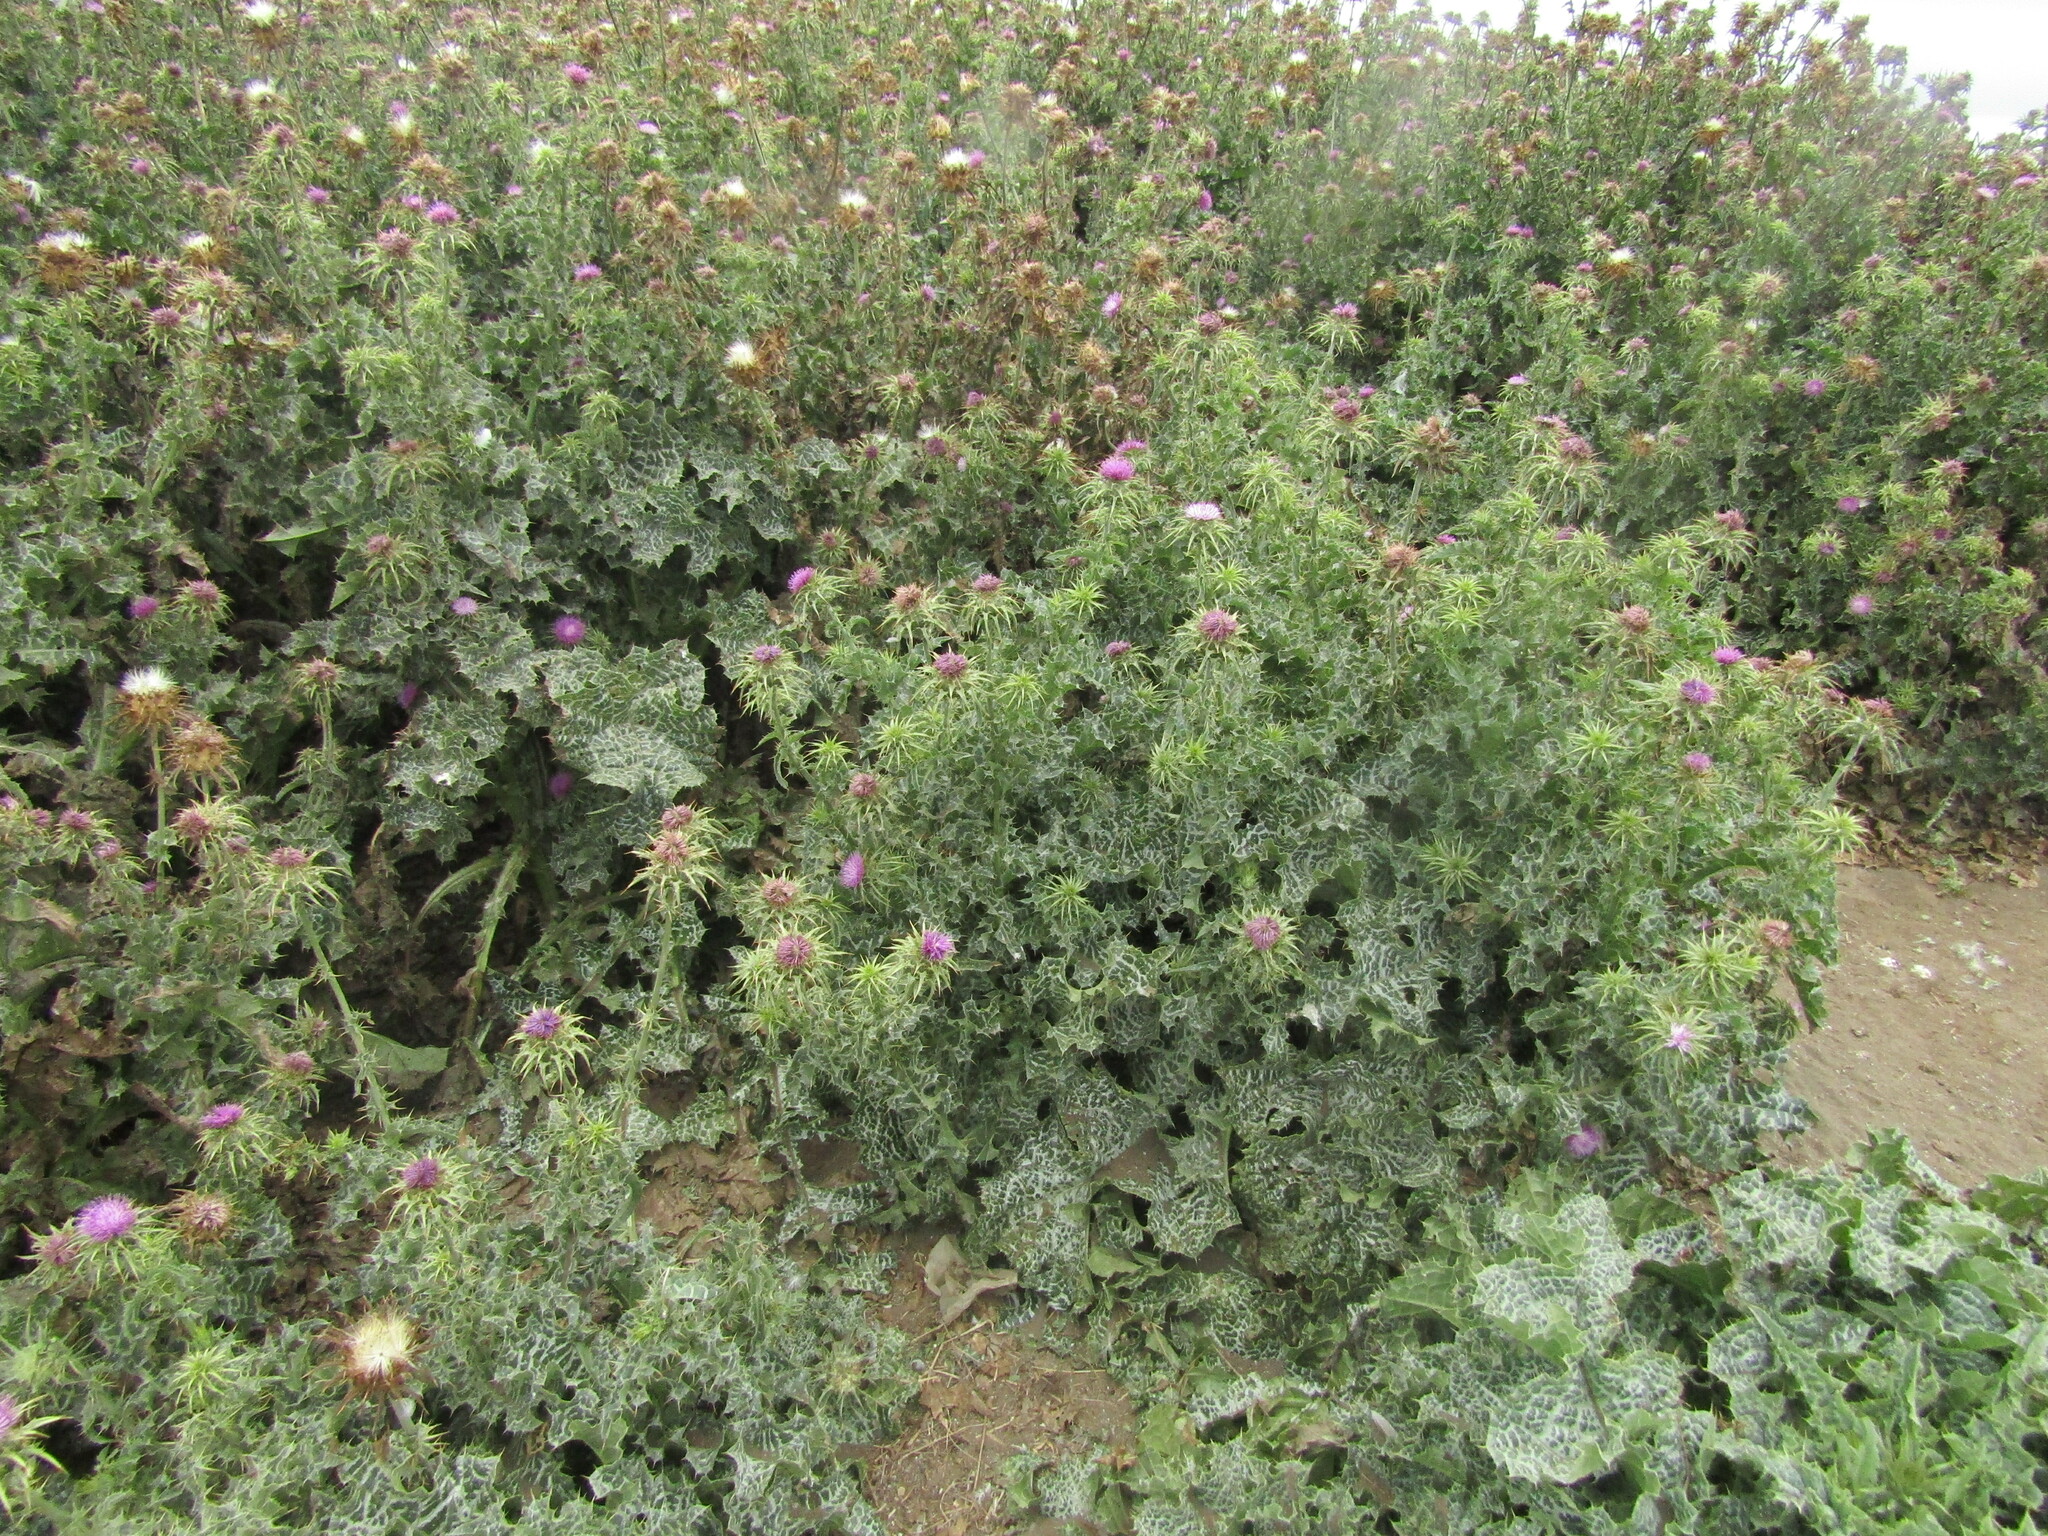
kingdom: Plantae
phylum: Tracheophyta
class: Magnoliopsida
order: Asterales
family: Asteraceae
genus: Silybum
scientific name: Silybum marianum
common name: Milk thistle
